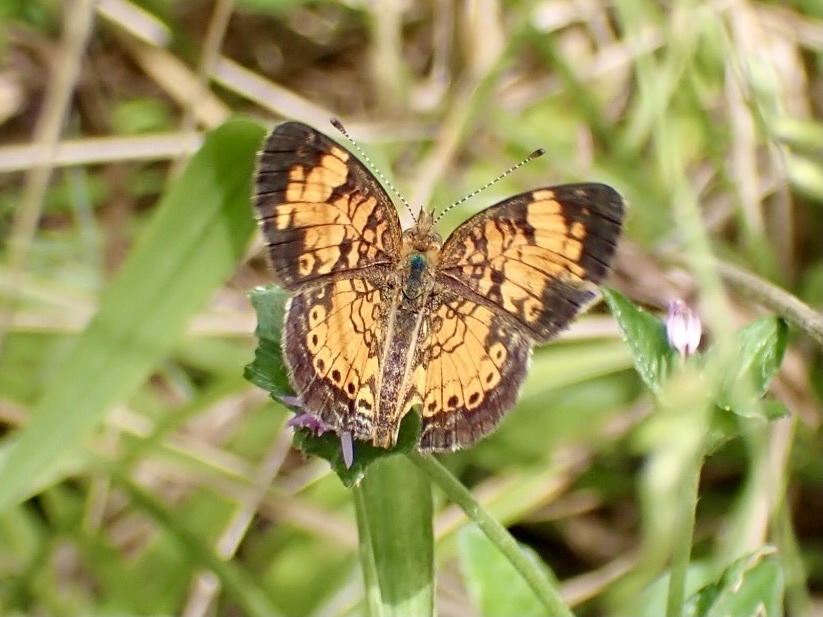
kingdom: Animalia
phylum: Arthropoda
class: Insecta
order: Lepidoptera
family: Nymphalidae
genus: Phyciodes
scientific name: Phyciodes tharos
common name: Pearl crescent
